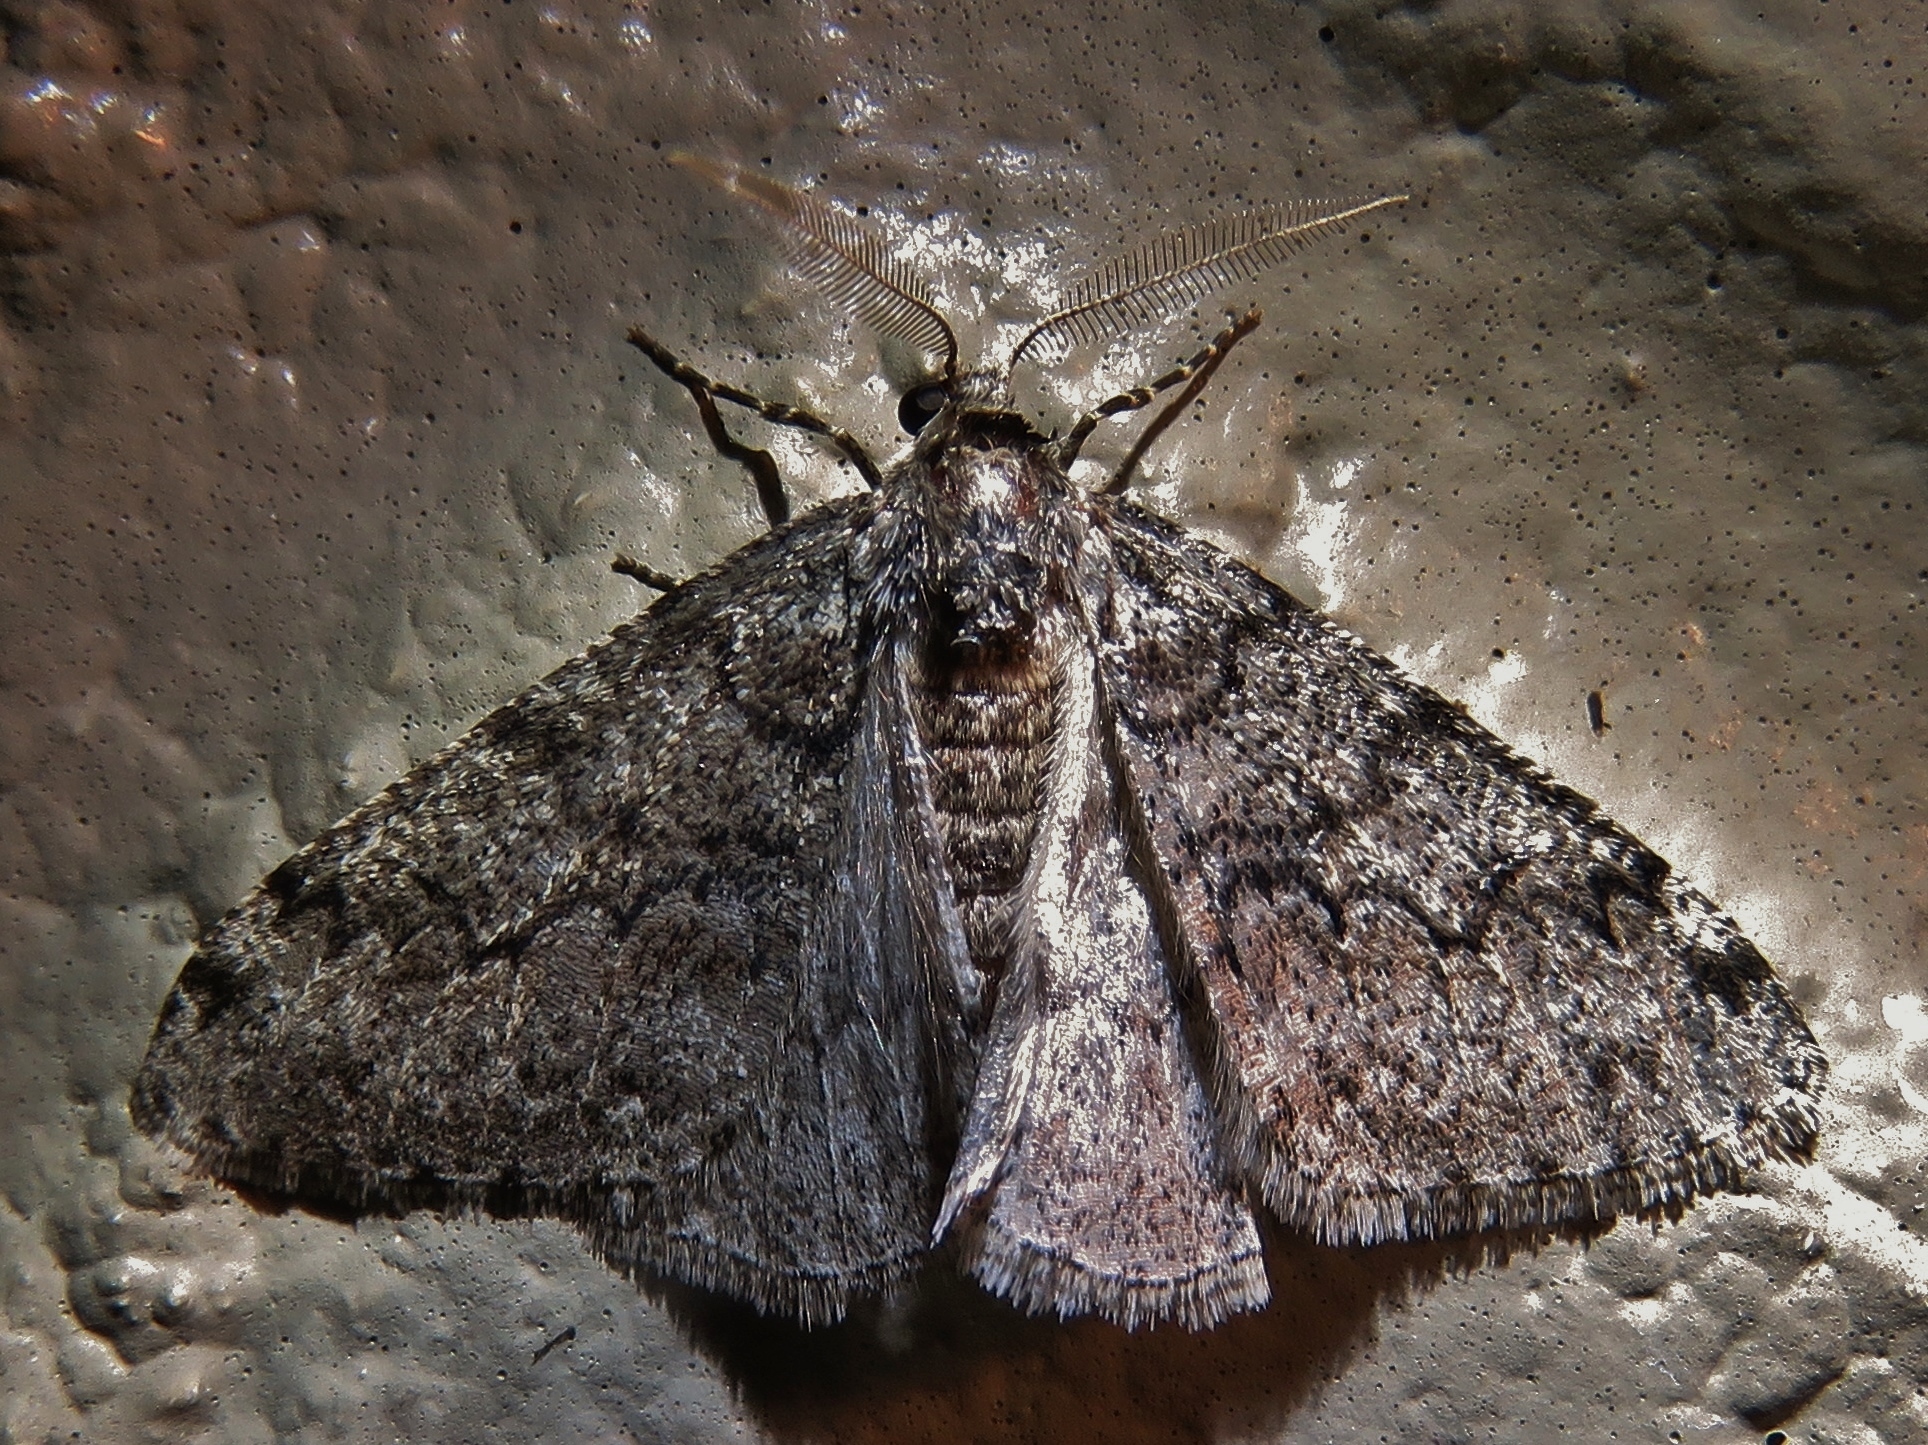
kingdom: Animalia
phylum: Arthropoda
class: Insecta
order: Lepidoptera
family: Geometridae
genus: Phigalia
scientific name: Phigalia denticulata
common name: Toothed phigalia
